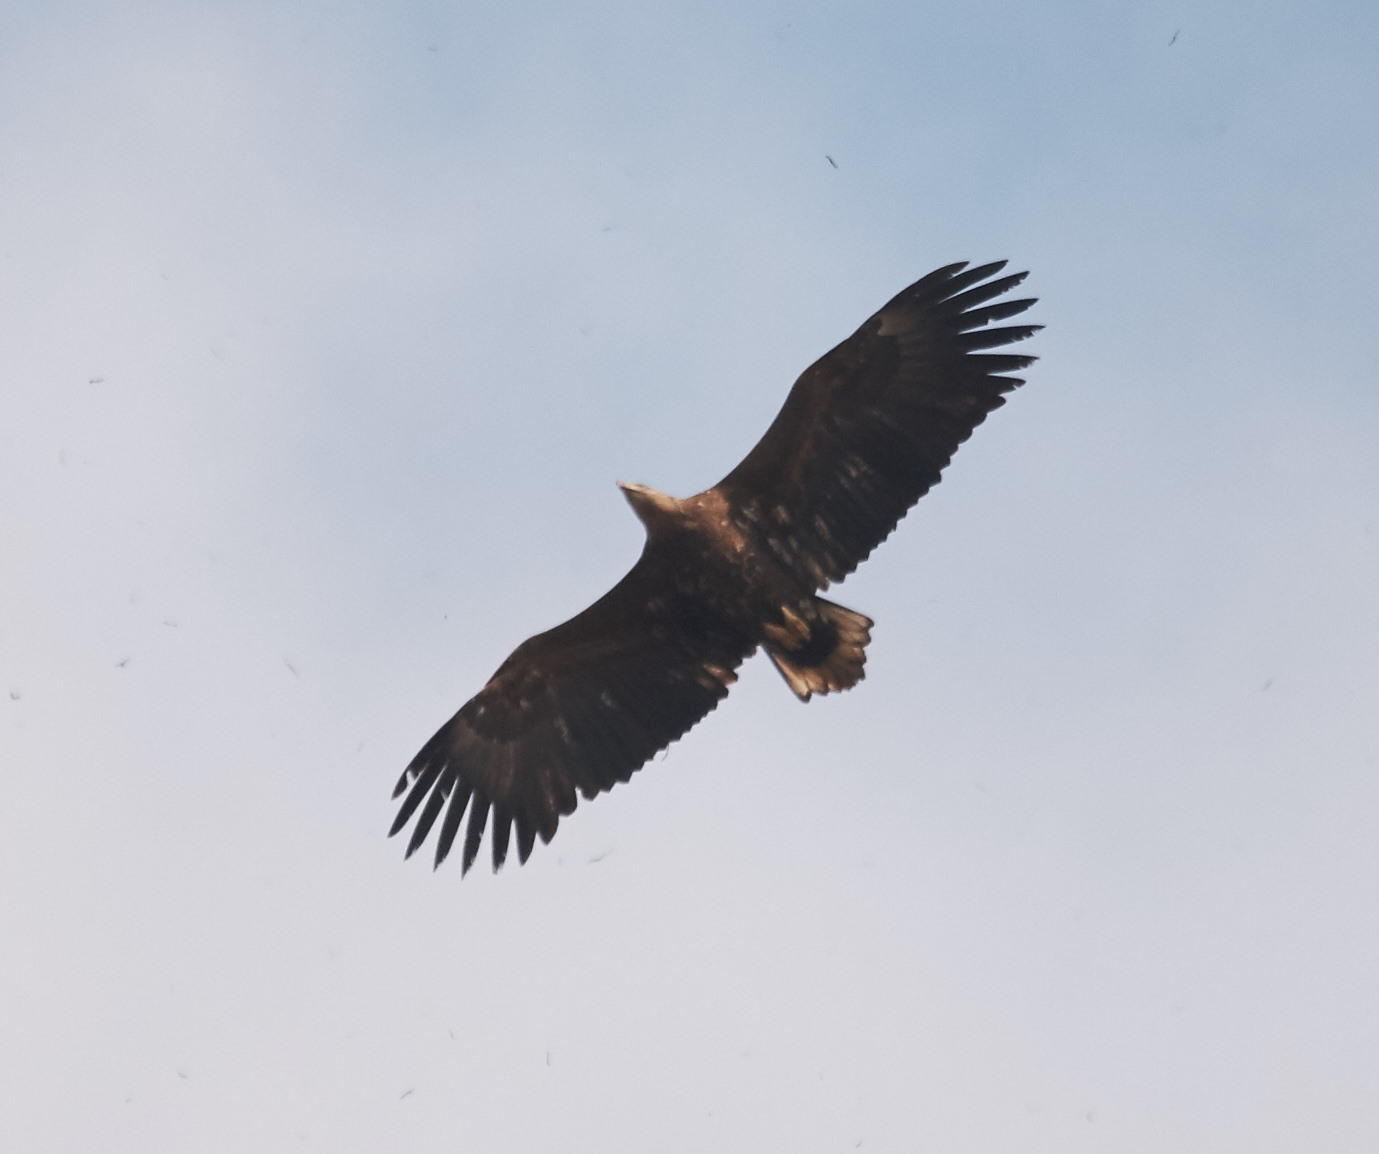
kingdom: Animalia
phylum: Chordata
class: Aves
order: Accipitriformes
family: Accipitridae
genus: Haliaeetus
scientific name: Haliaeetus albicilla
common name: White-tailed eagle
